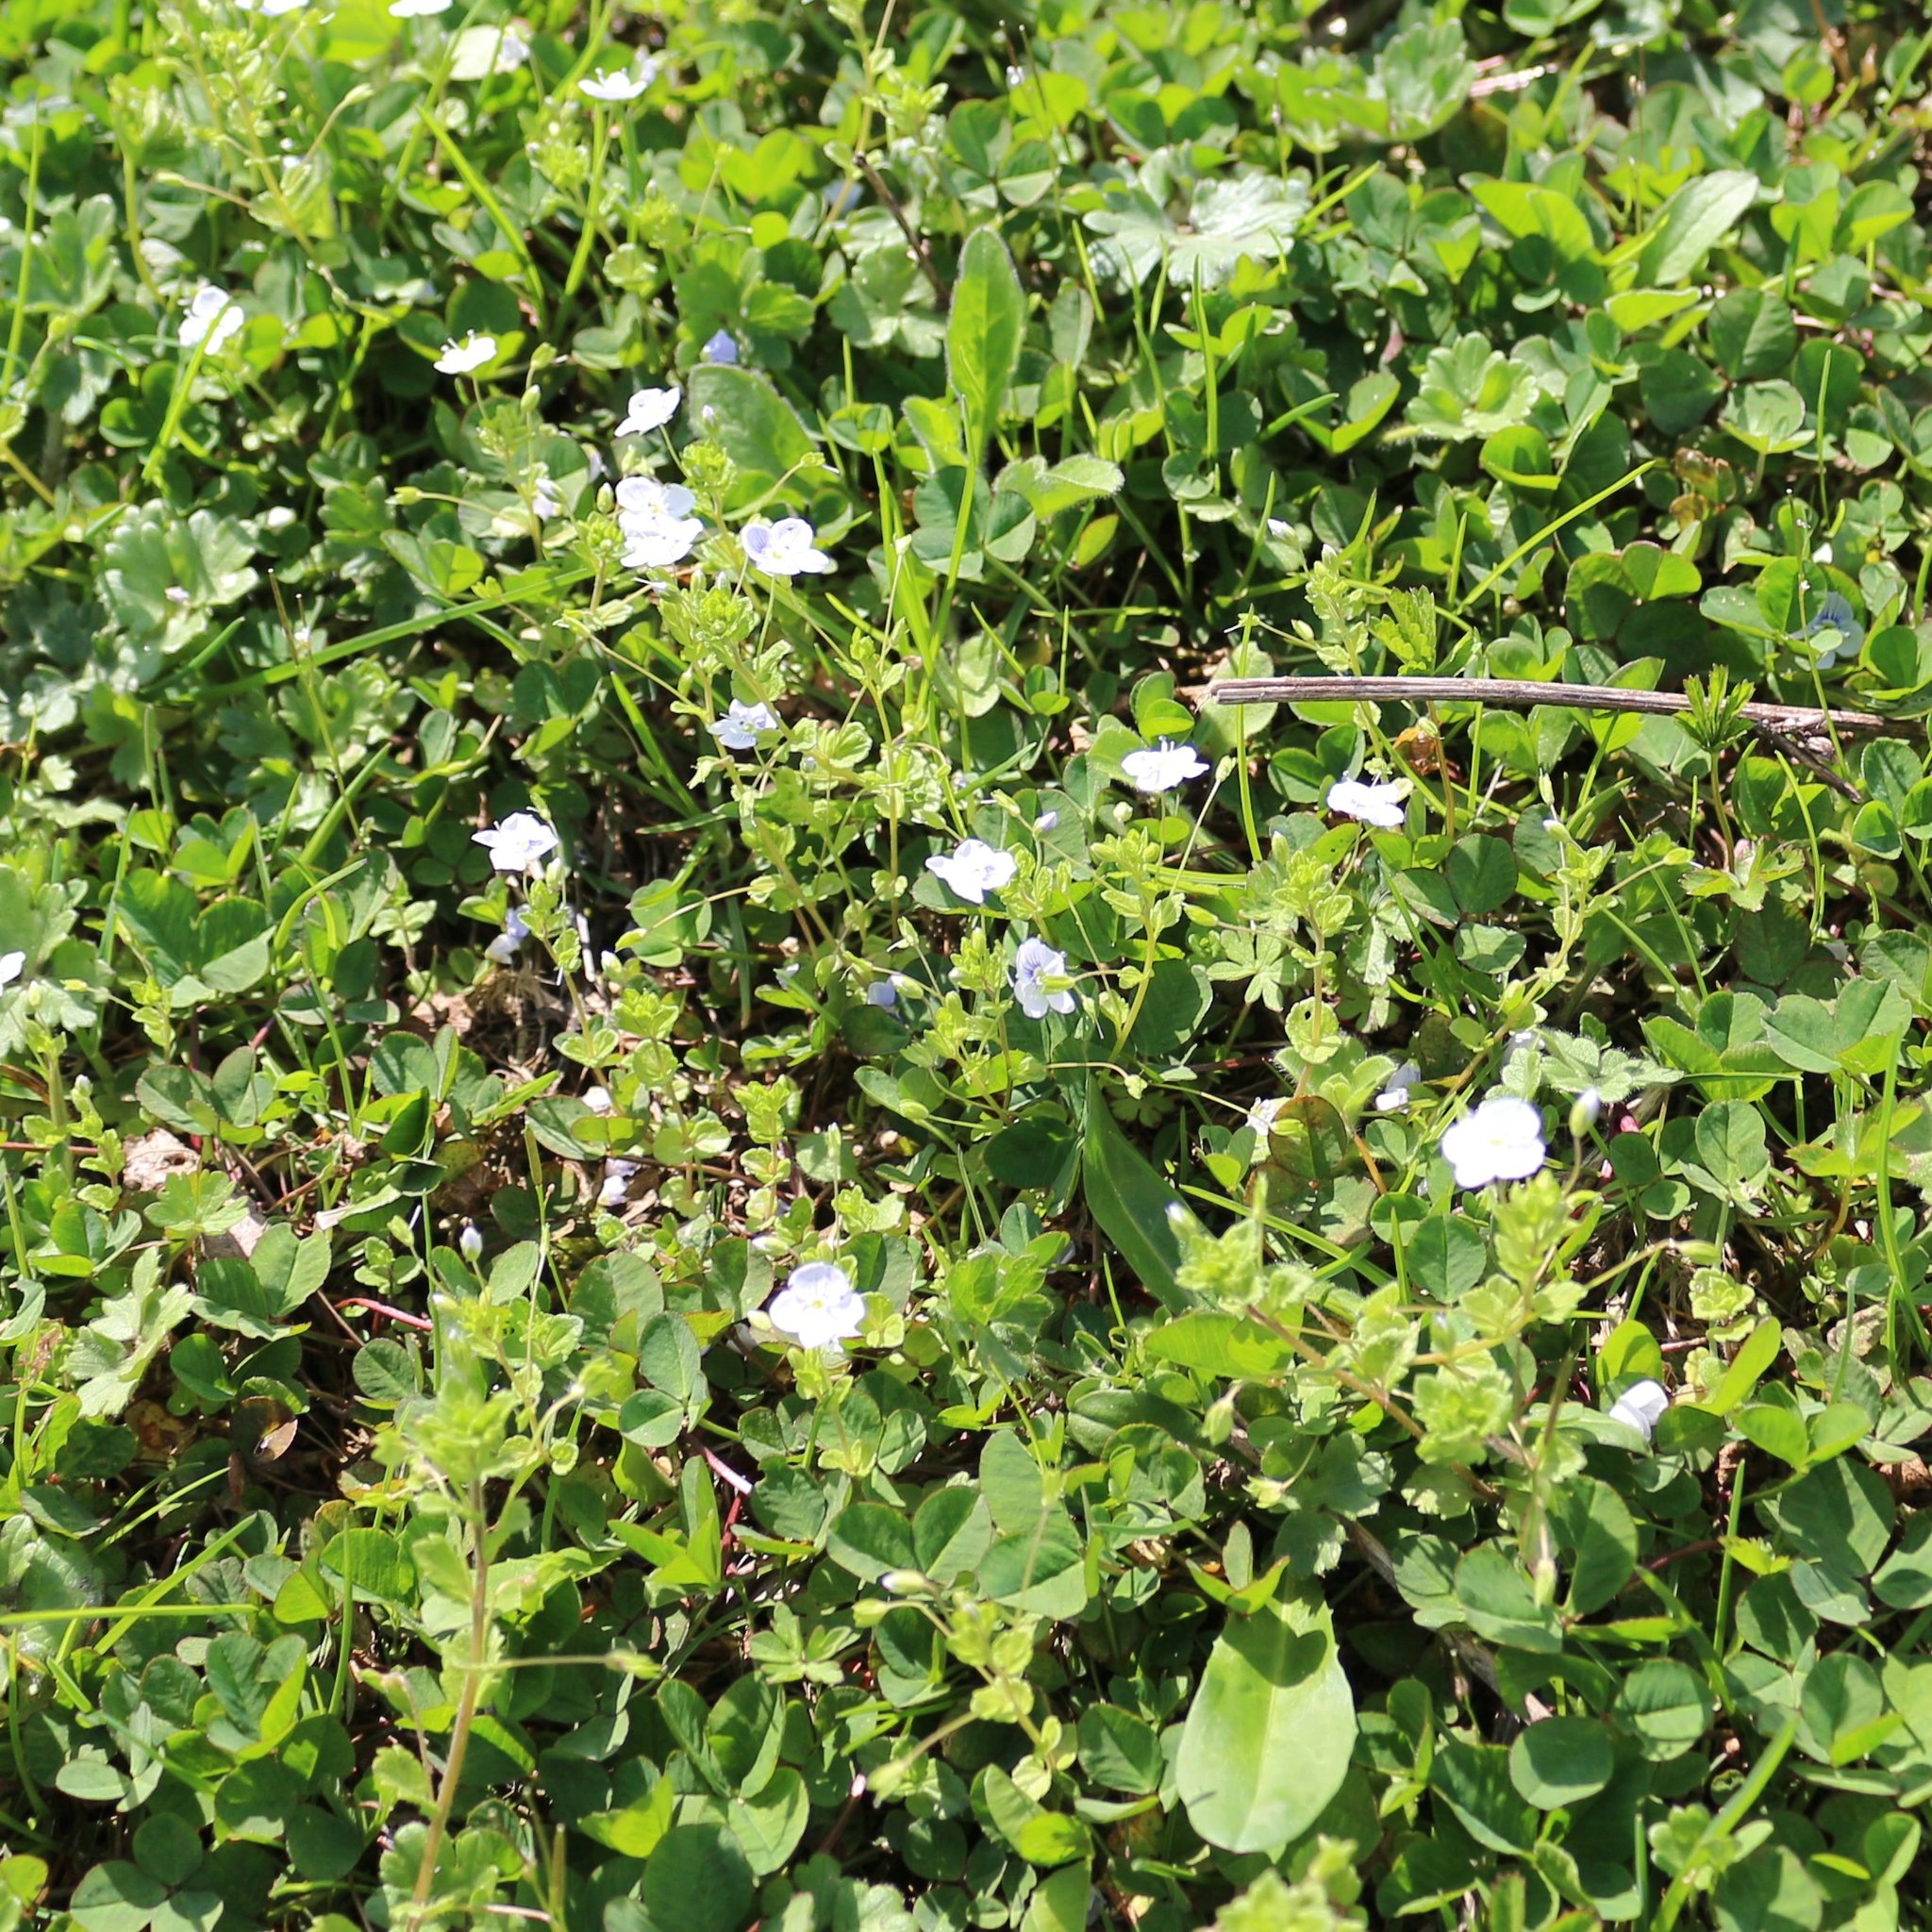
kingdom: Plantae
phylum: Tracheophyta
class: Magnoliopsida
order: Lamiales
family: Plantaginaceae
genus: Veronica
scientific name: Veronica filiformis
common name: Slender speedwell
